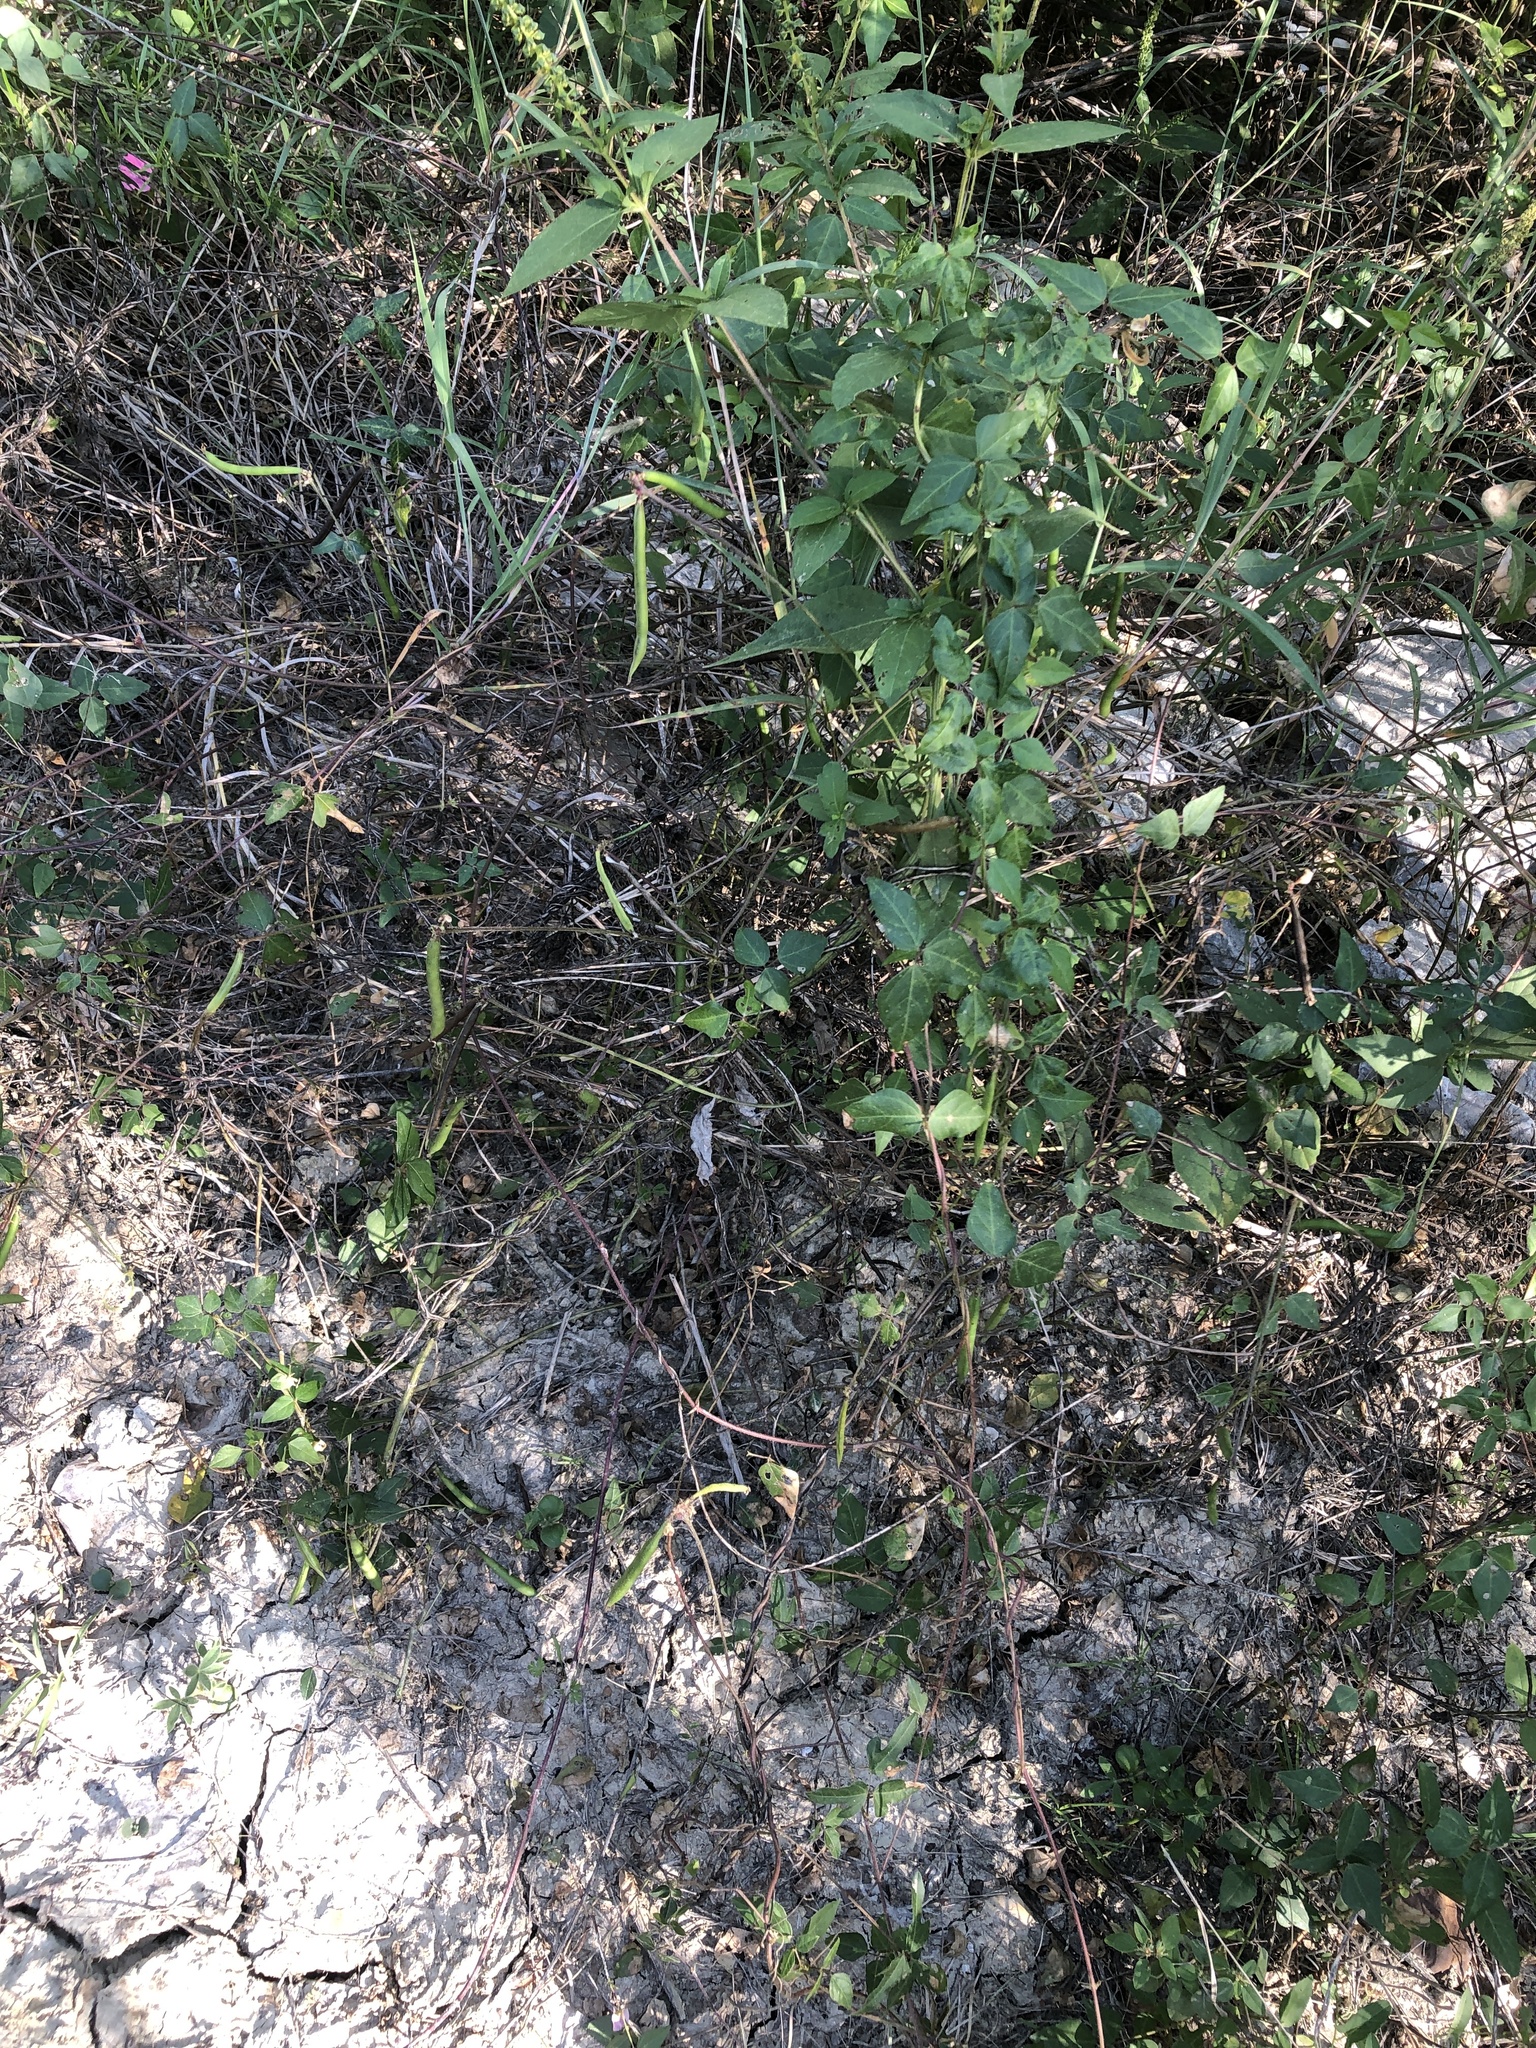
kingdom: Plantae
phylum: Tracheophyta
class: Magnoliopsida
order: Fabales
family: Fabaceae
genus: Strophostyles
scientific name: Strophostyles helvola
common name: Trailing wild bean
